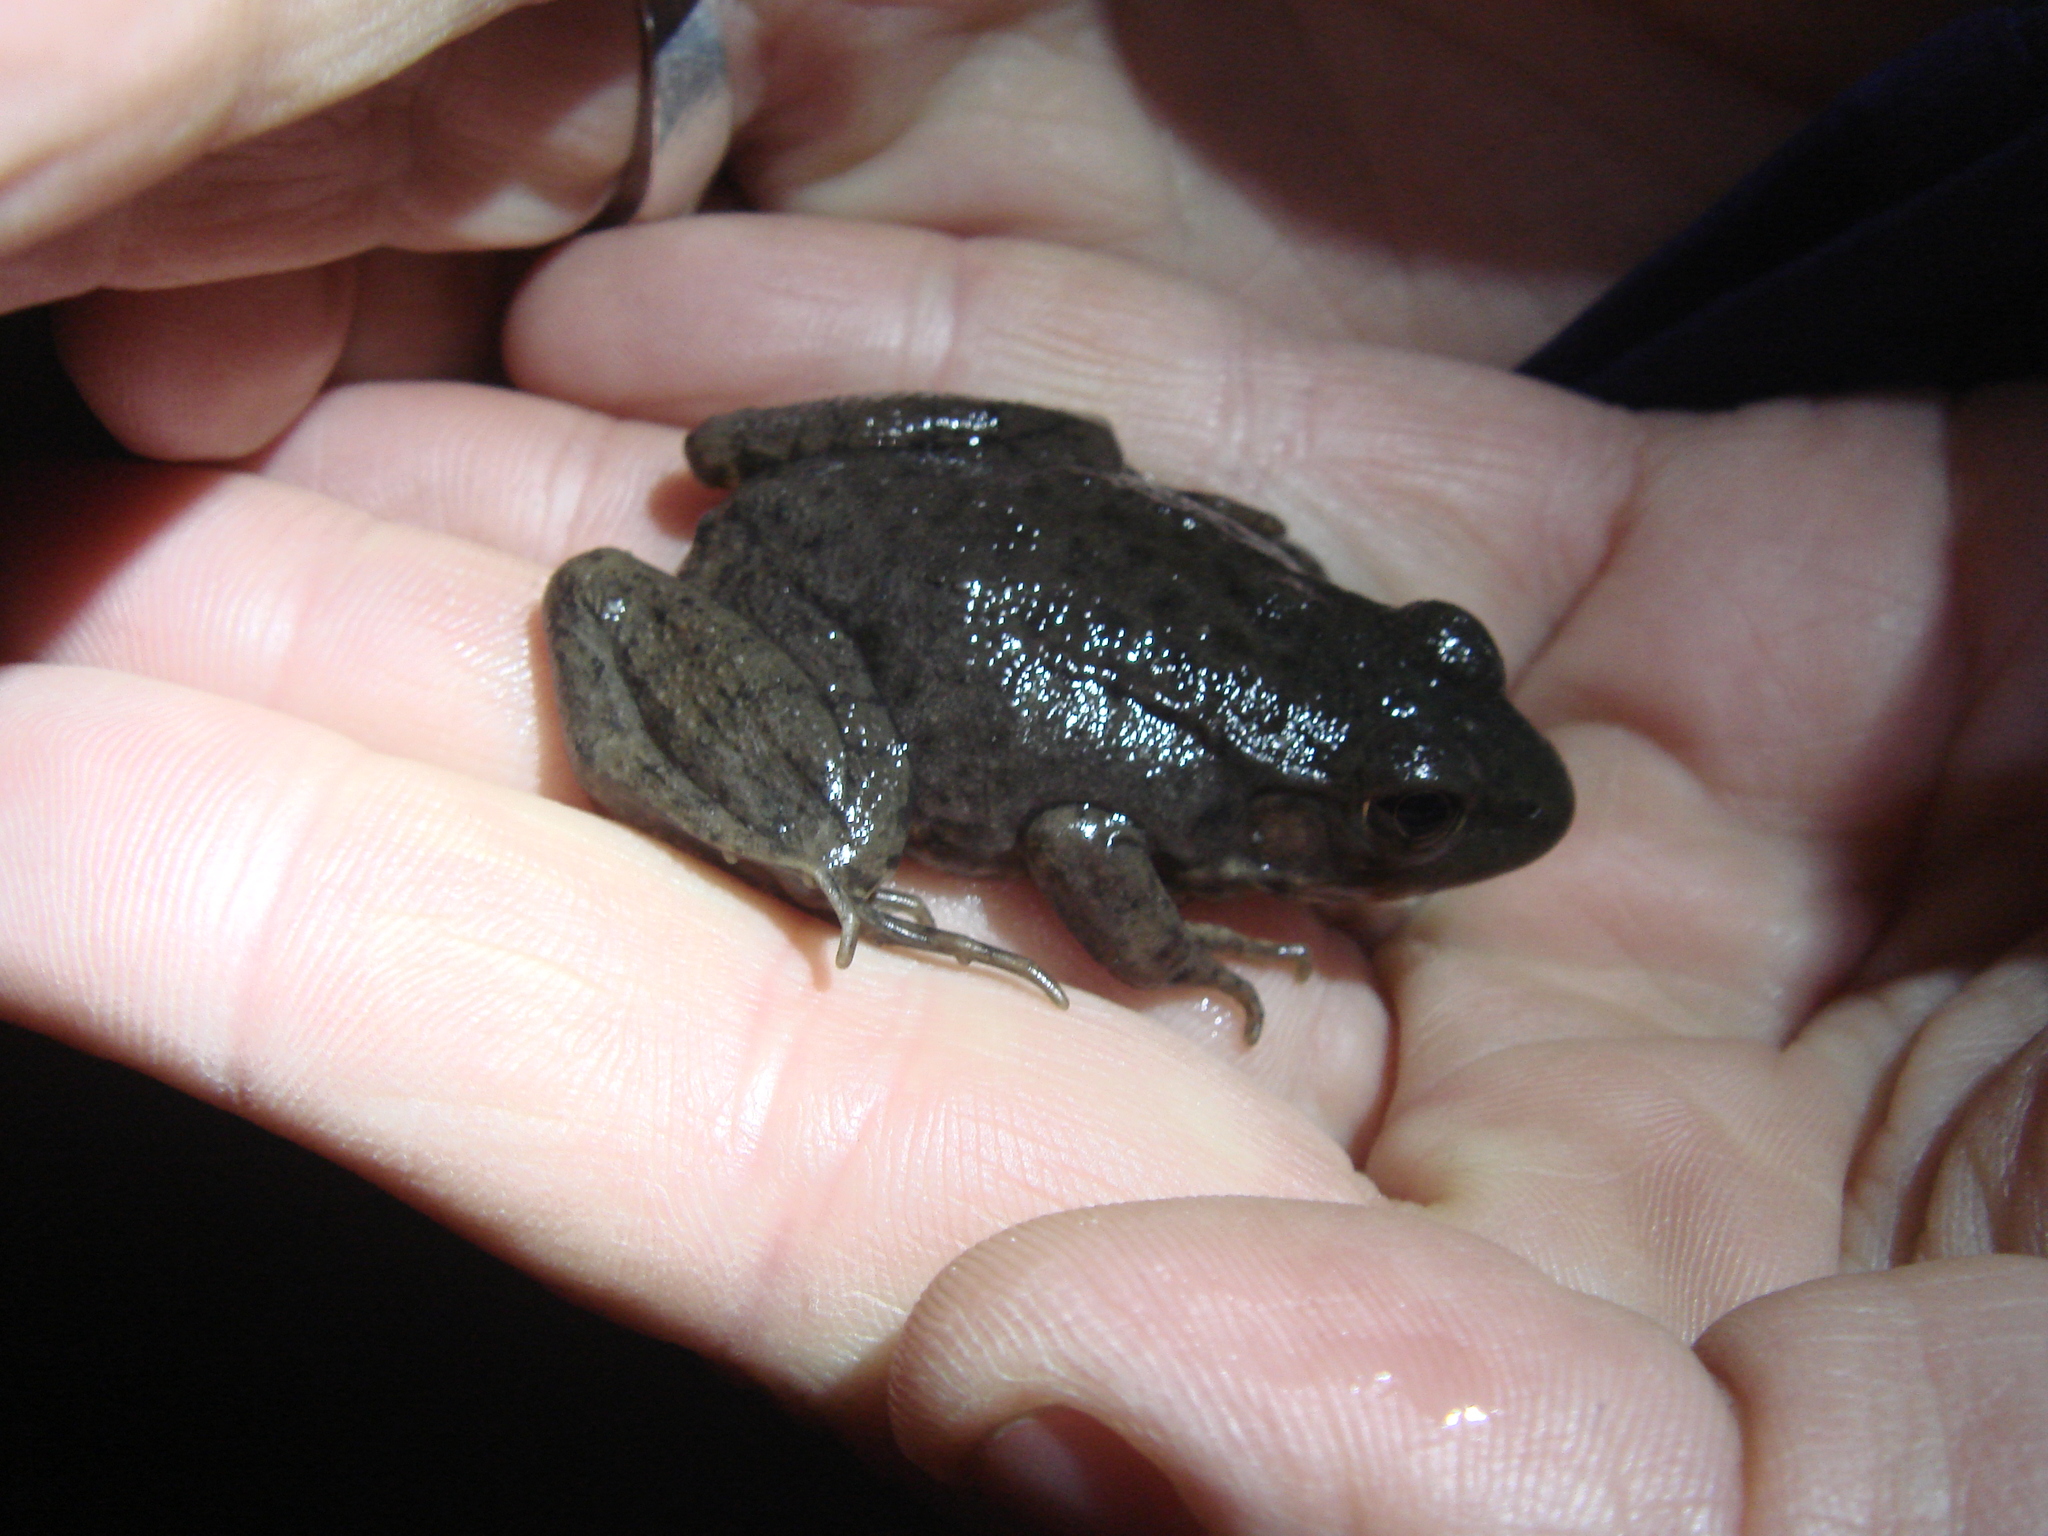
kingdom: Animalia
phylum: Chordata
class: Amphibia
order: Anura
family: Ranidae
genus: Lithobates
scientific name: Lithobates clamitans
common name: Green frog
